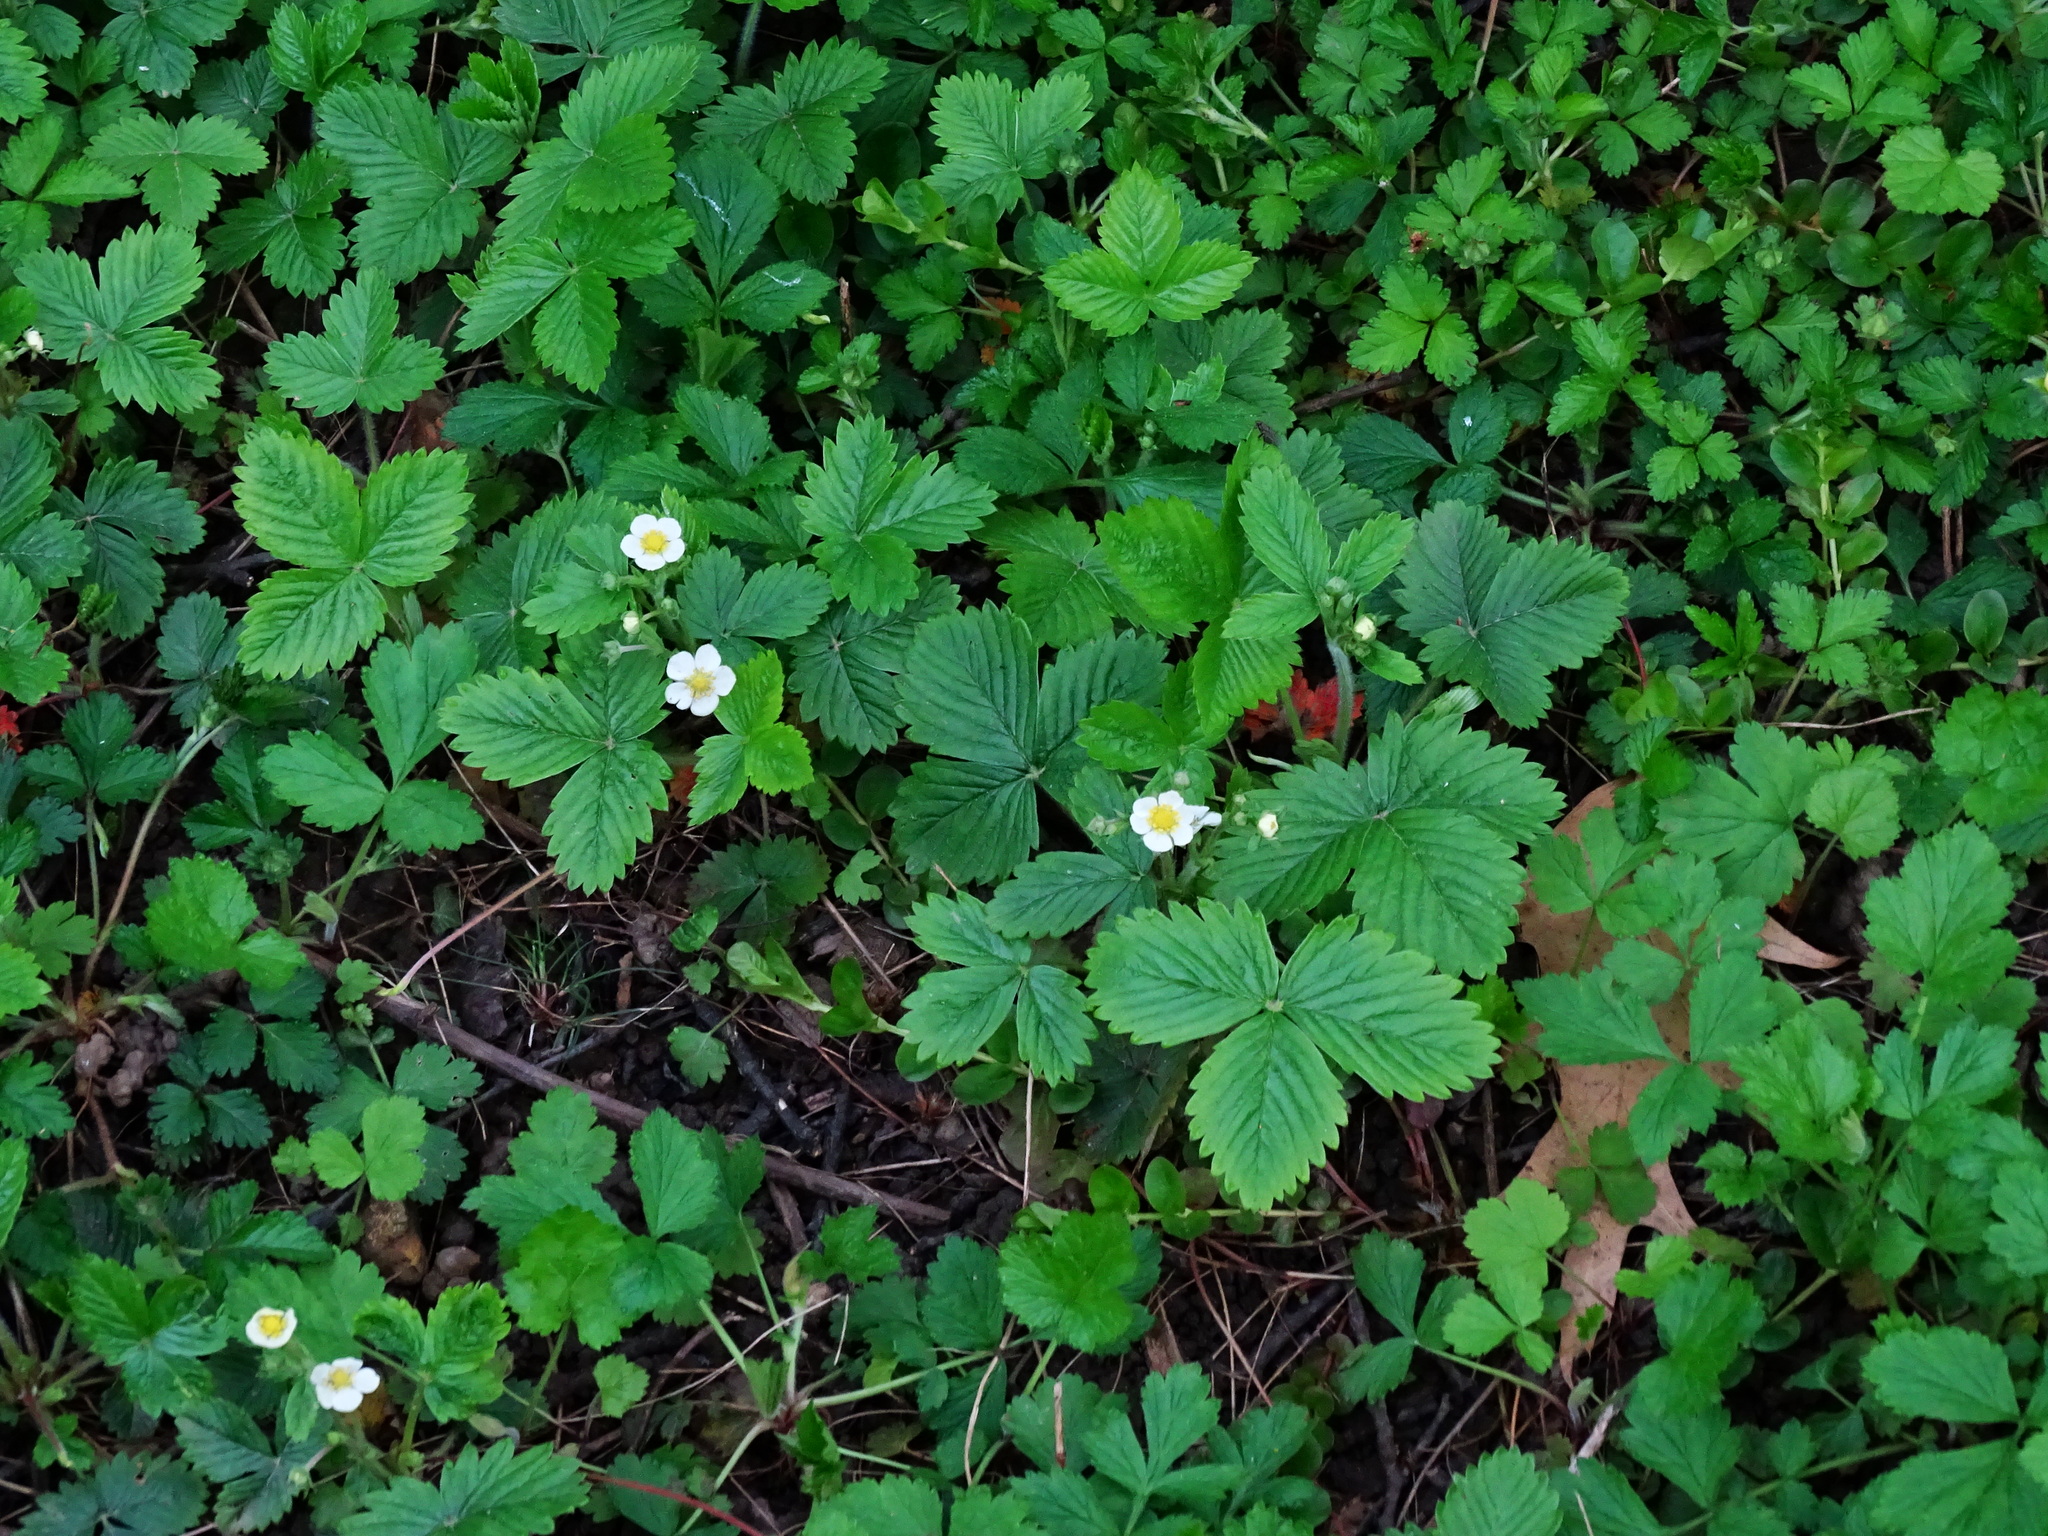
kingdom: Plantae
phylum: Tracheophyta
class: Magnoliopsida
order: Rosales
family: Rosaceae
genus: Fragaria
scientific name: Fragaria vesca
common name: Wild strawberry
